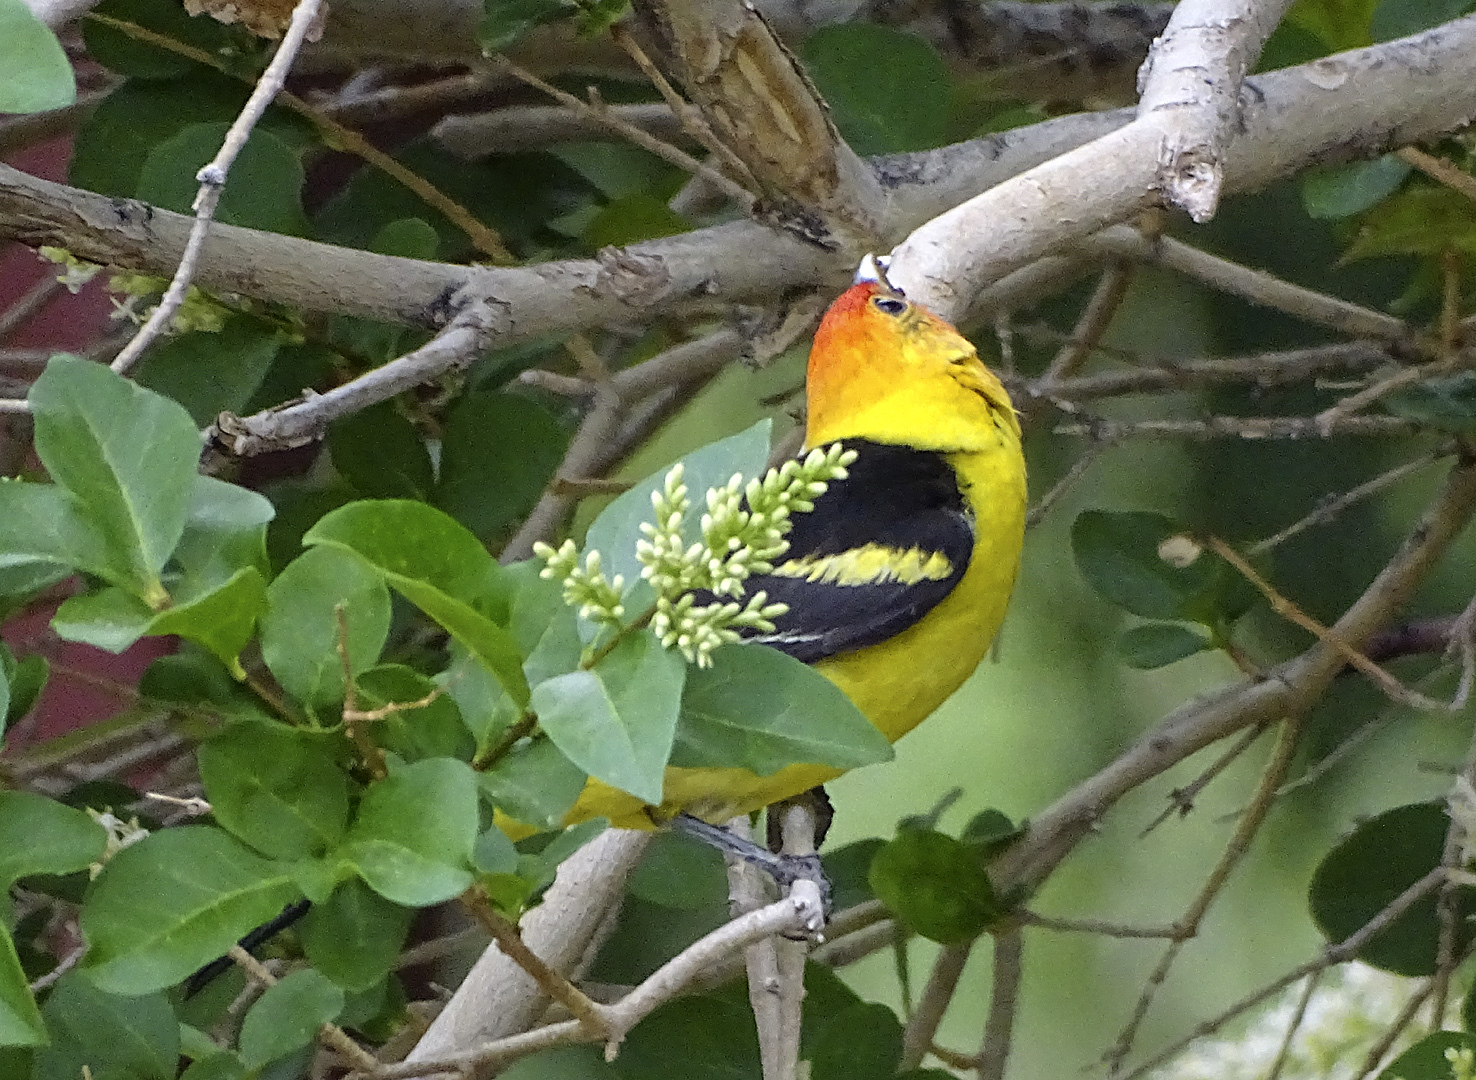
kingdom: Animalia
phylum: Chordata
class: Aves
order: Passeriformes
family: Cardinalidae
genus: Piranga
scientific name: Piranga ludoviciana
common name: Western tanager
